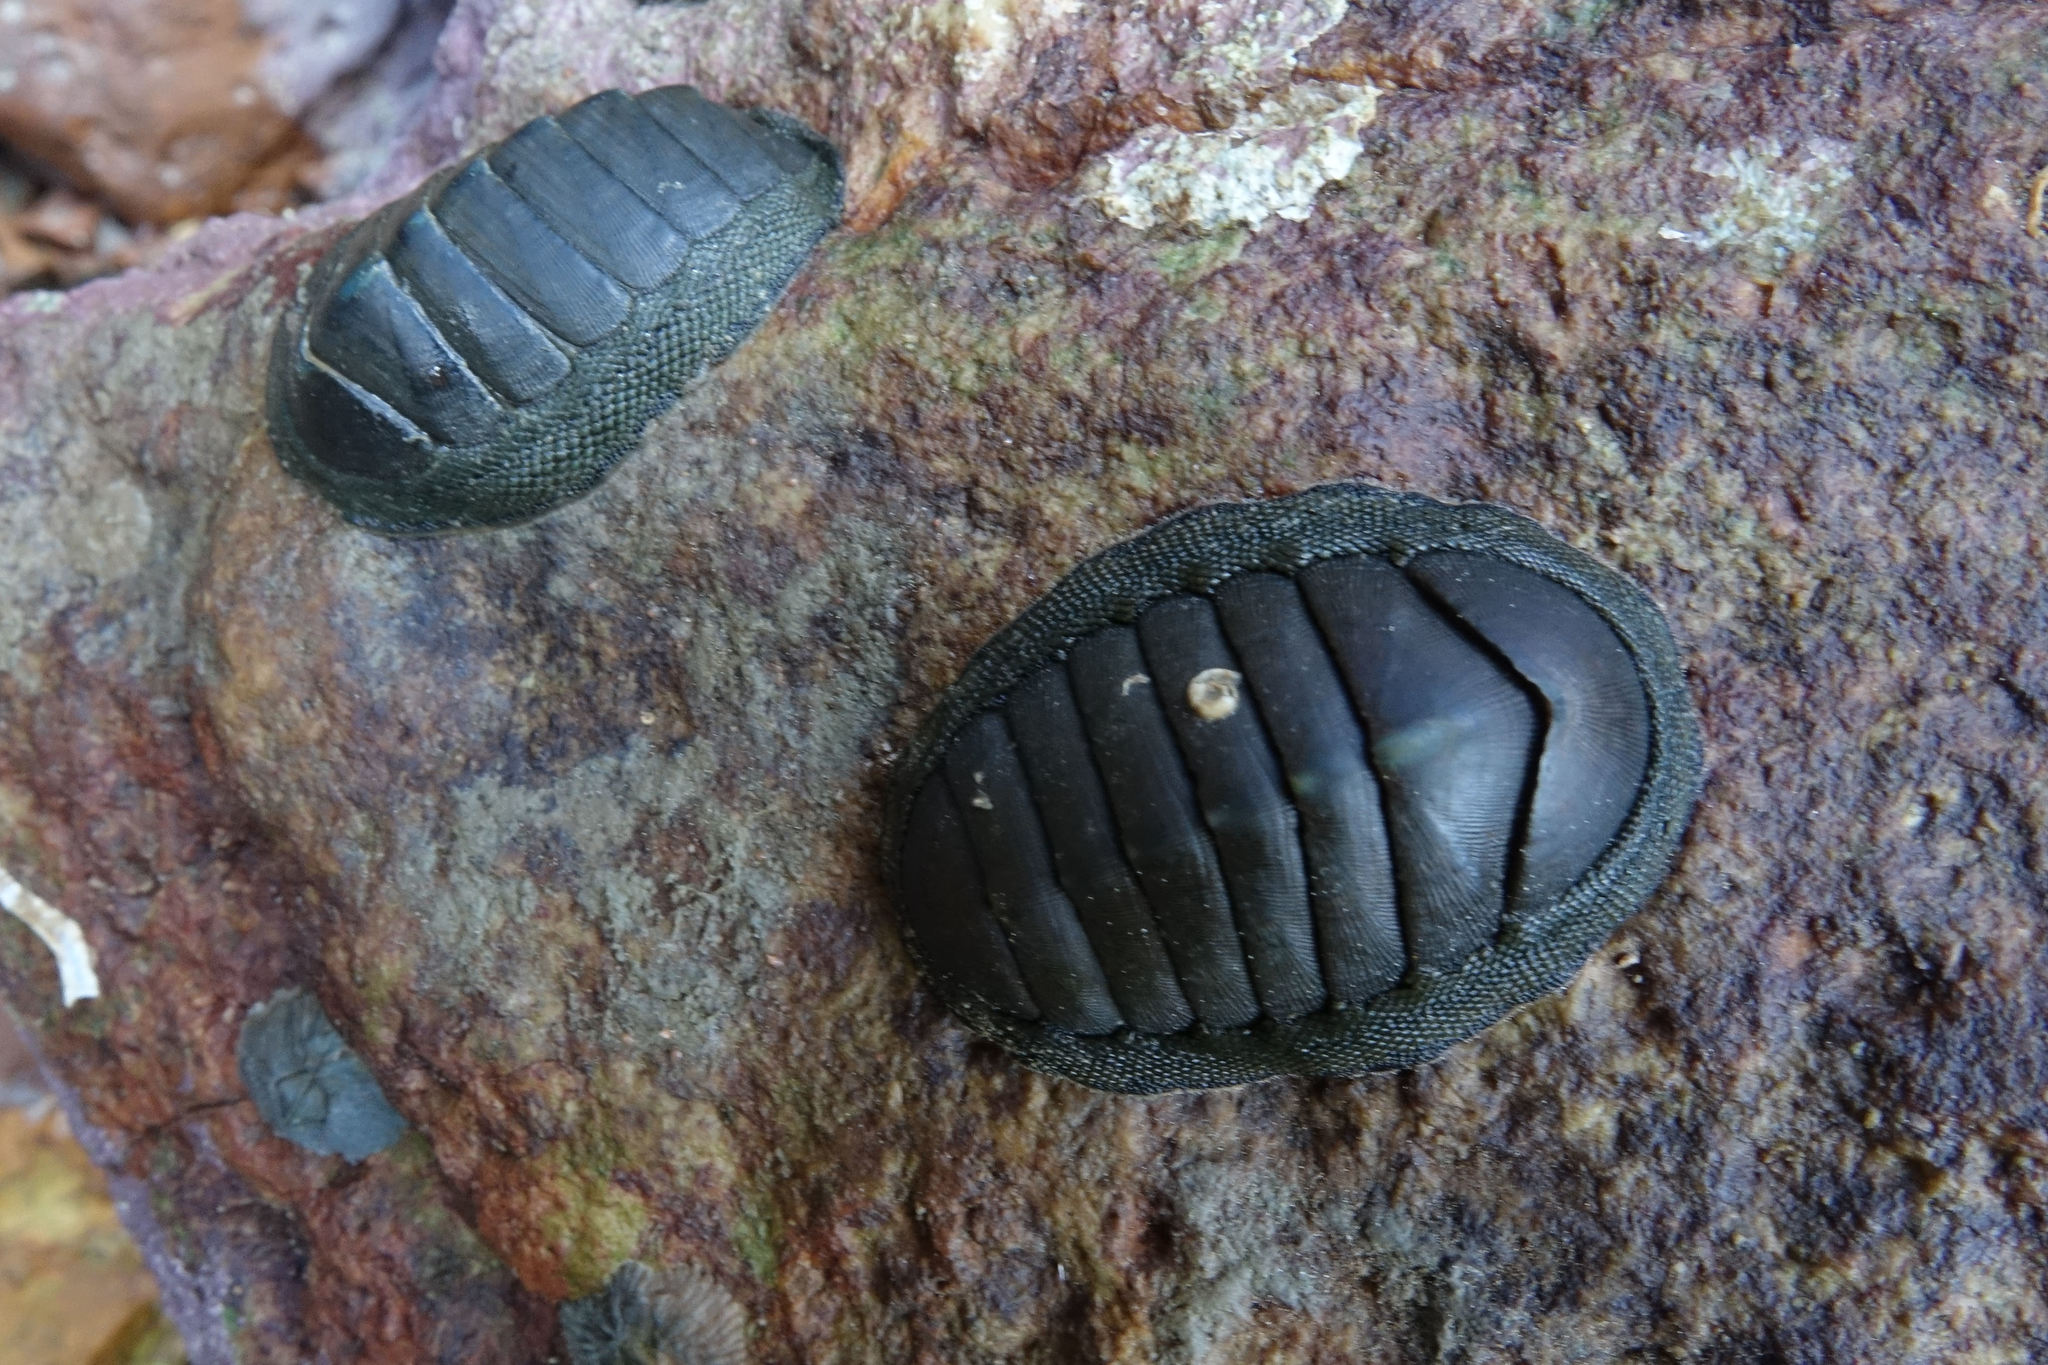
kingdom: Animalia
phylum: Mollusca
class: Polyplacophora
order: Chitonida
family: Chitonidae
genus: Chiton
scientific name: Chiton glaucus
